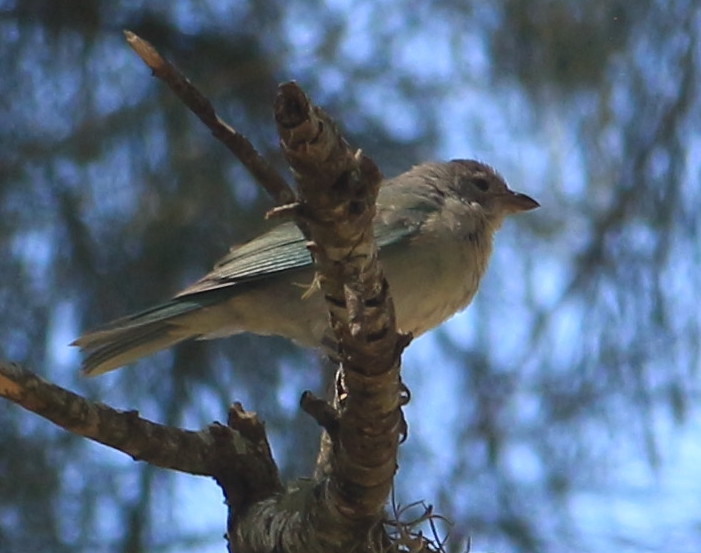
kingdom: Animalia
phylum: Chordata
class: Aves
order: Passeriformes
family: Thraupidae
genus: Thraupis
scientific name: Thraupis sayaca
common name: Sayaca tanager
